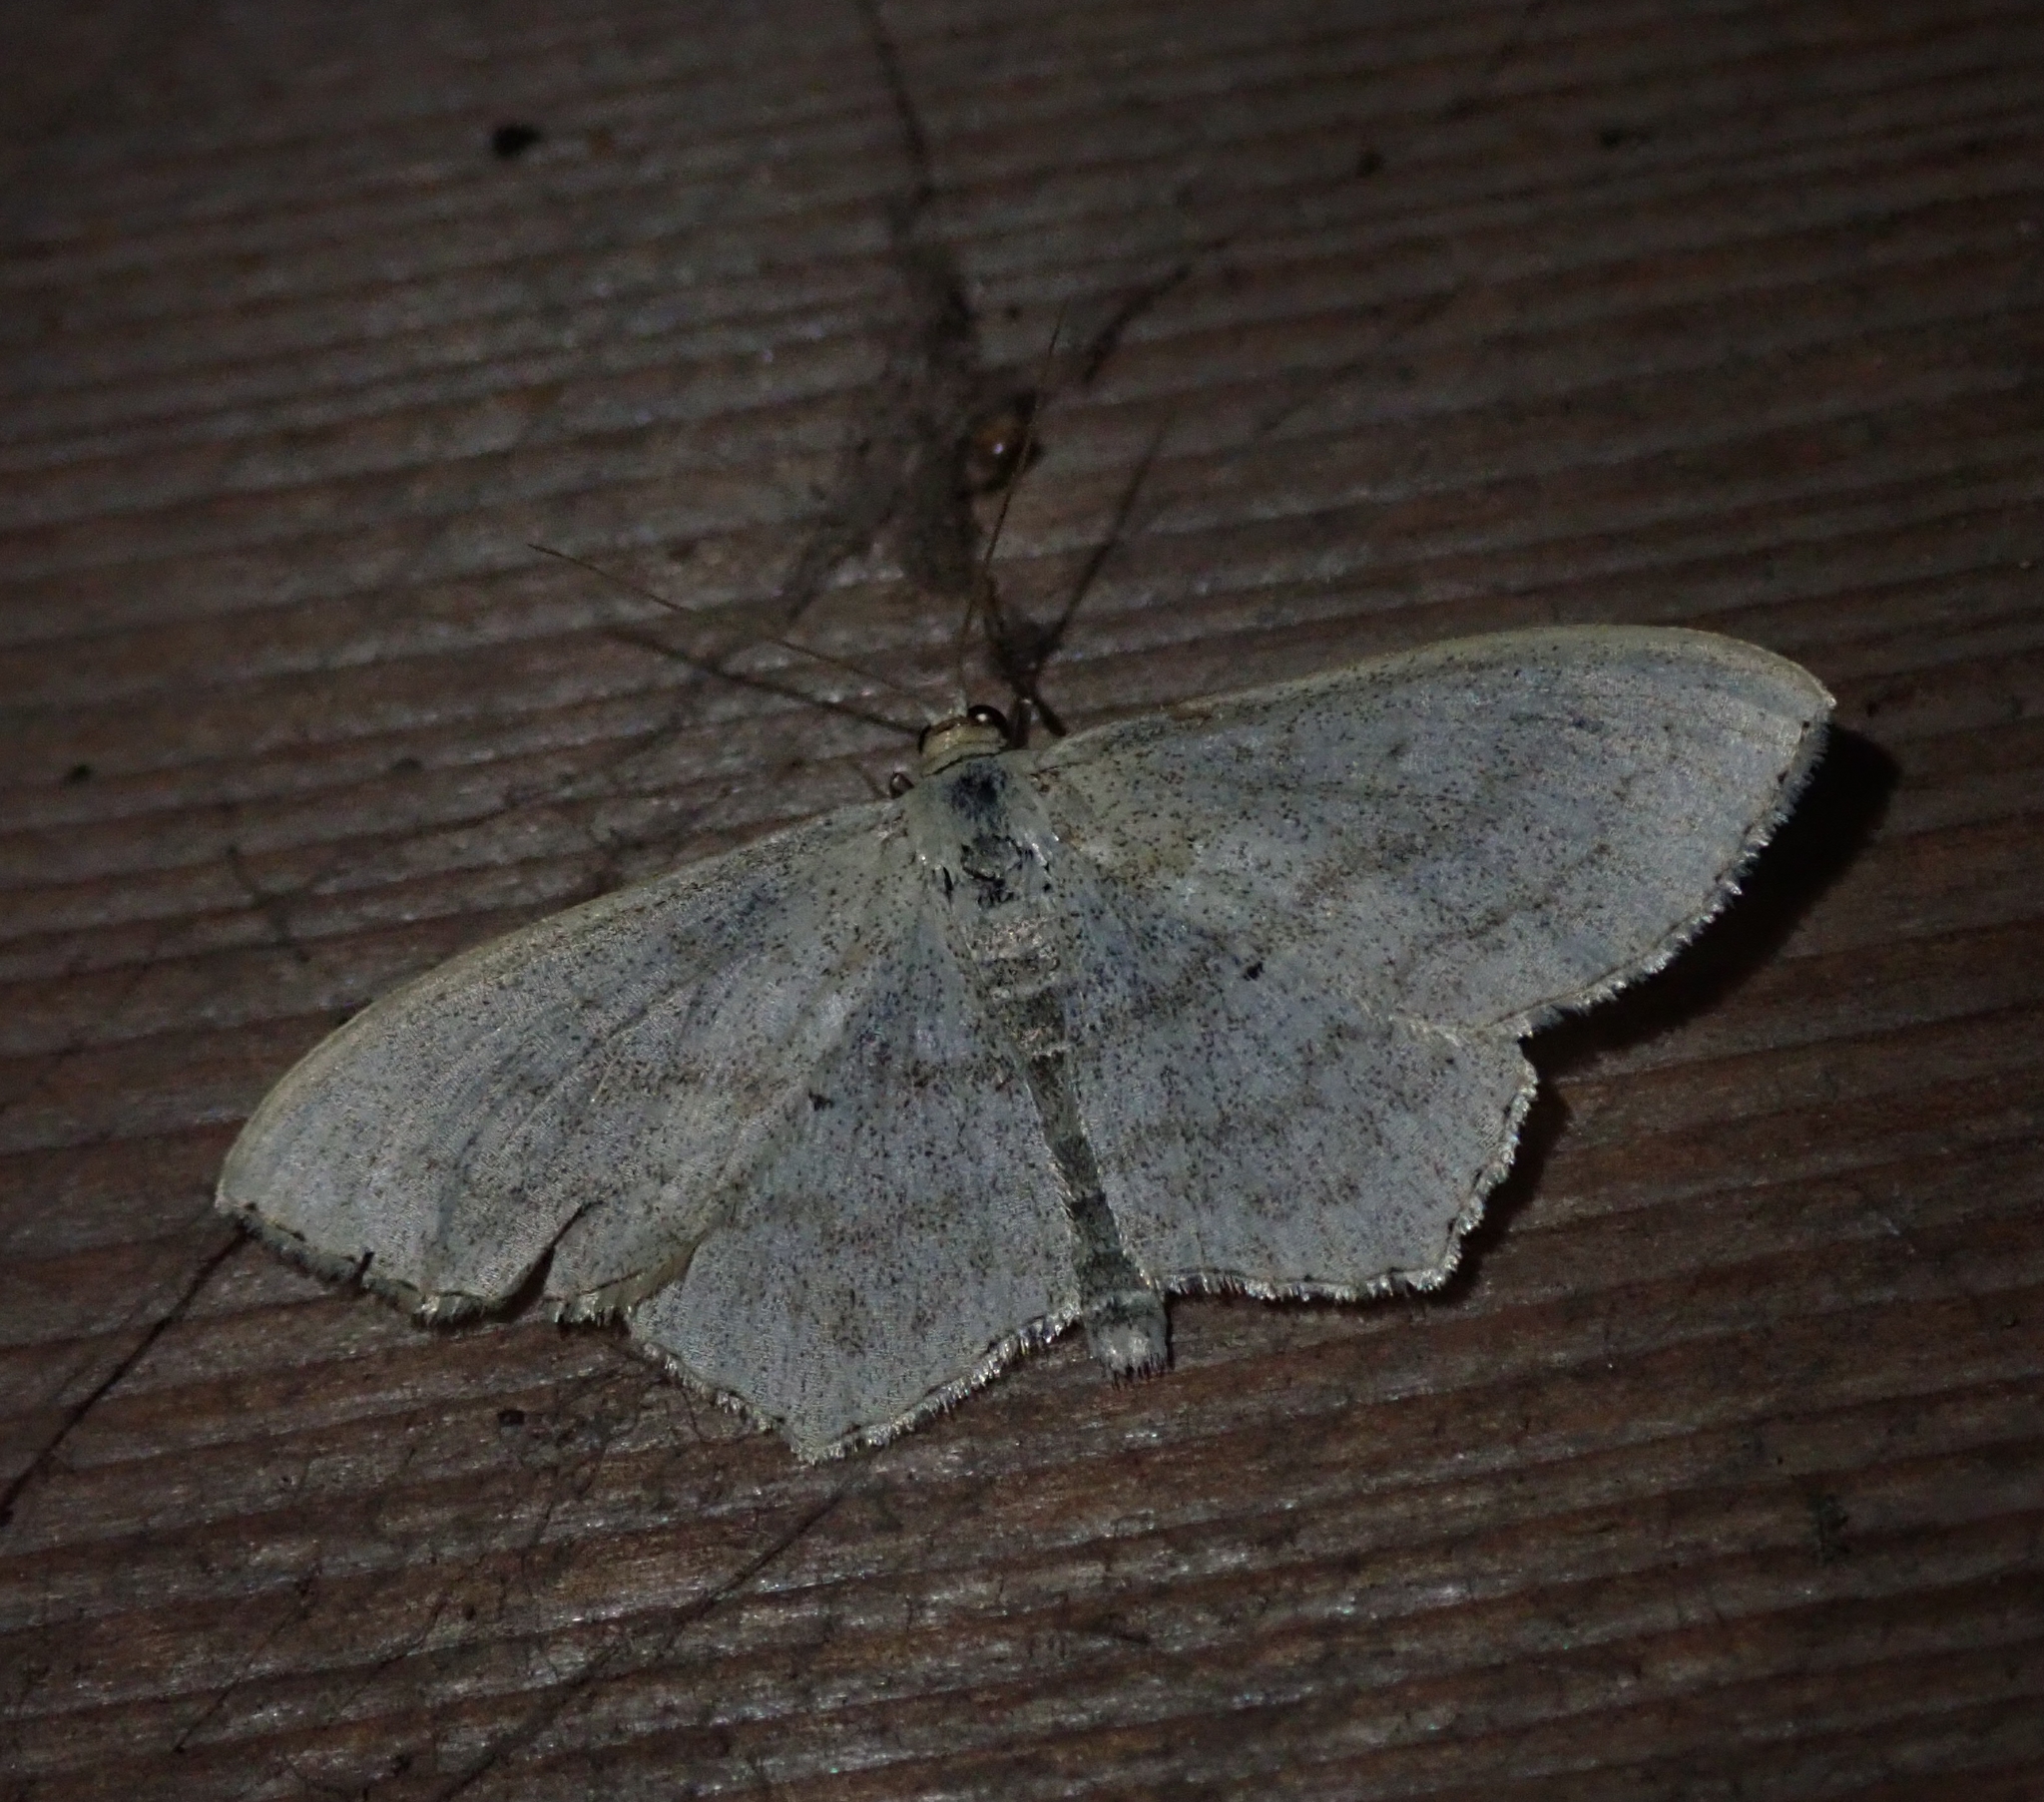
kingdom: Animalia
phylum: Arthropoda
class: Insecta
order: Lepidoptera
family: Geometridae
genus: Scopula
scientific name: Scopula nigropunctata
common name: Sub-angled wave
